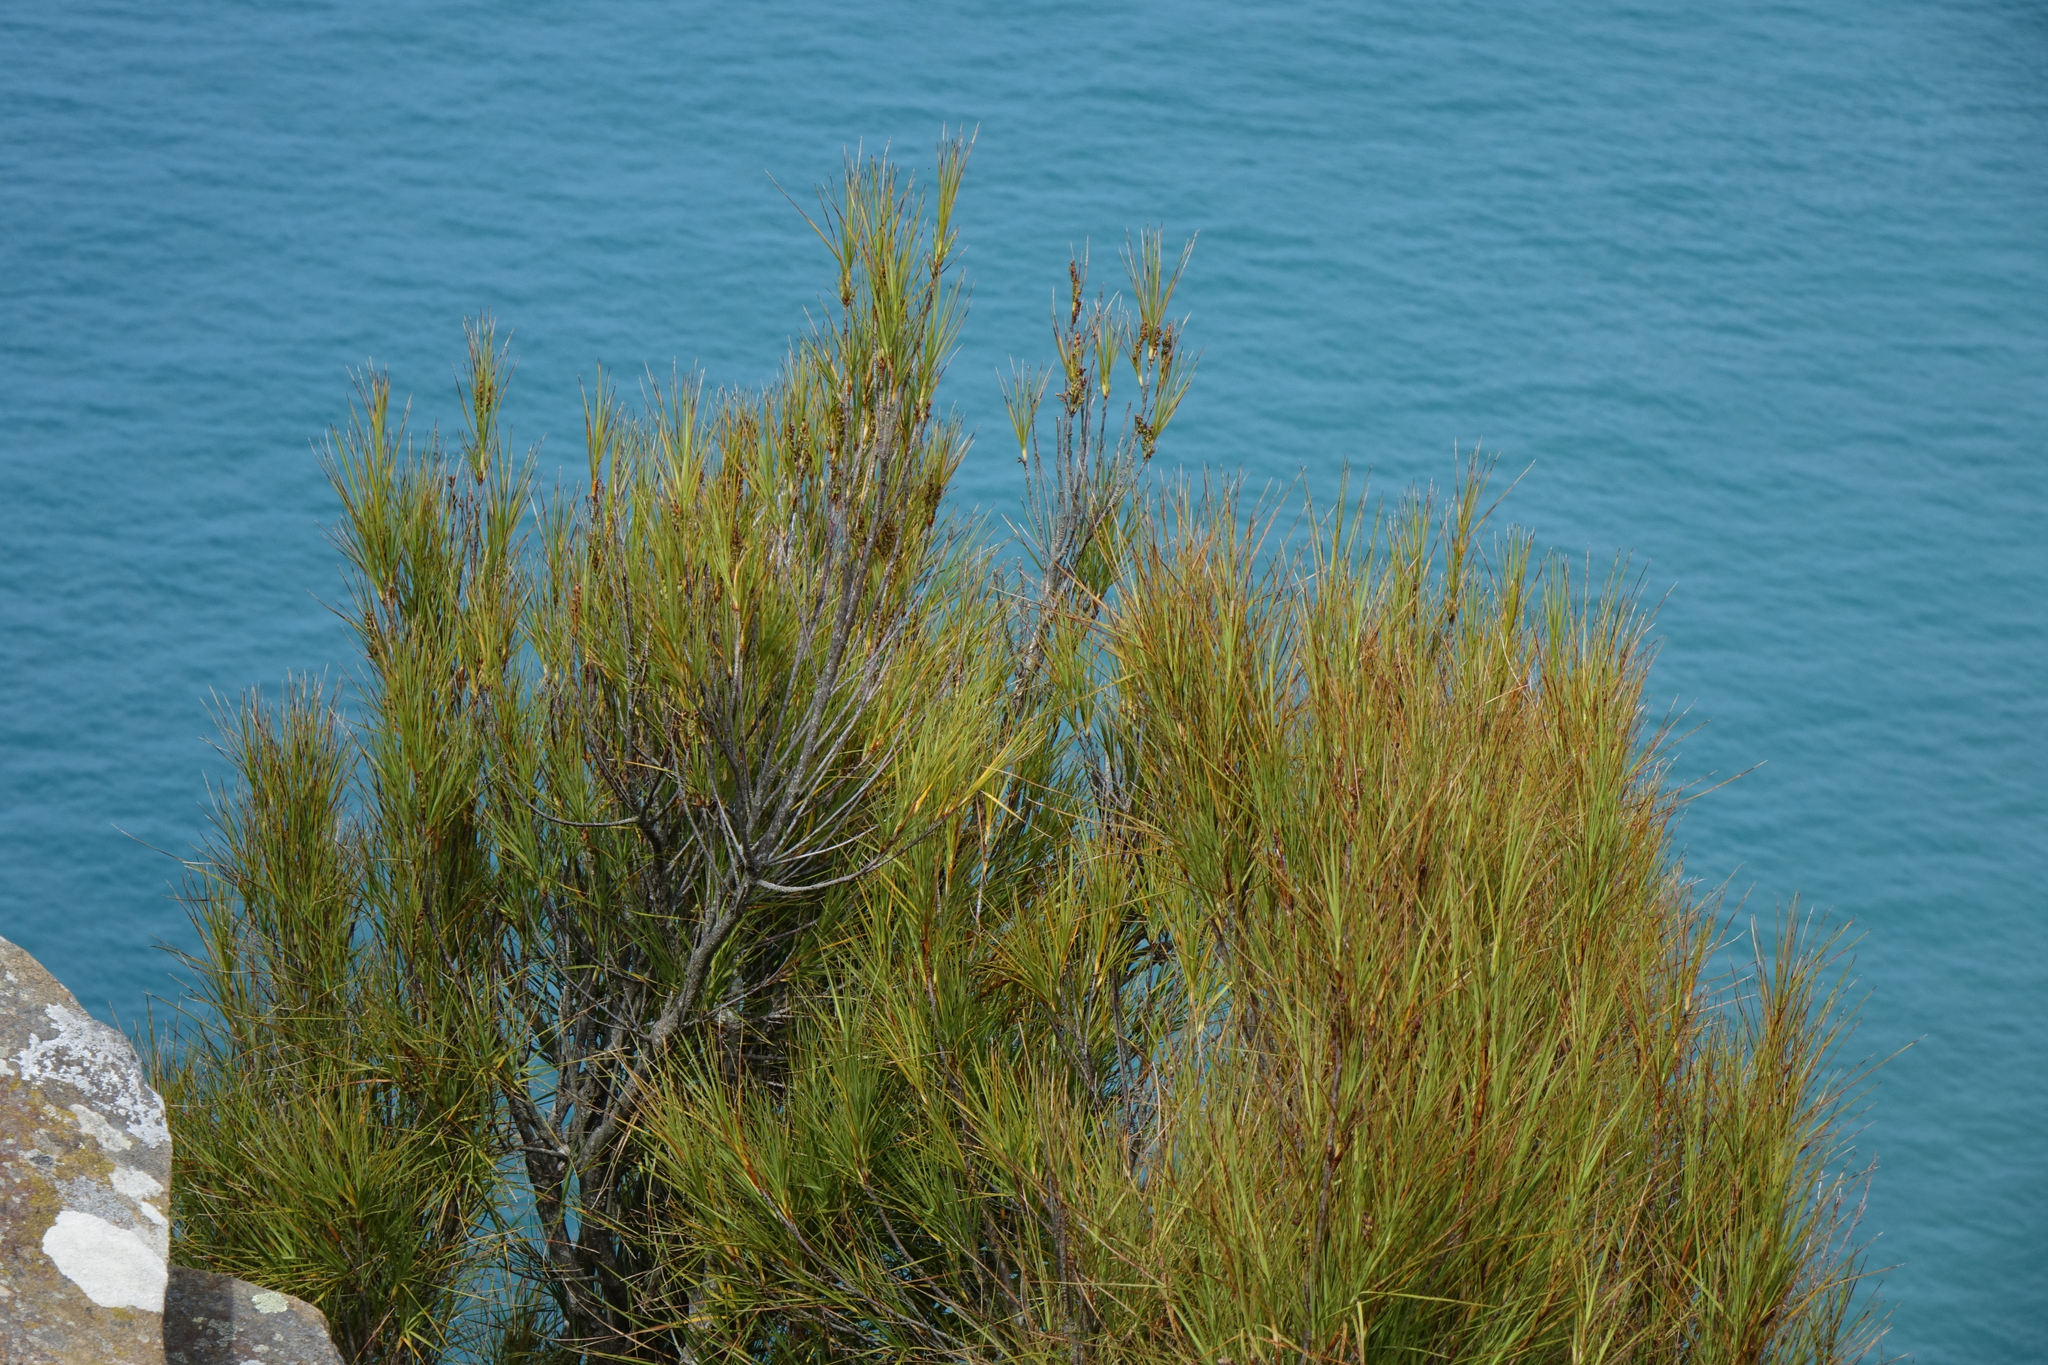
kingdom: Plantae
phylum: Tracheophyta
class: Magnoliopsida
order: Ericales
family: Ericaceae
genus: Dracophyllum
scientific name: Dracophyllum longifolium
